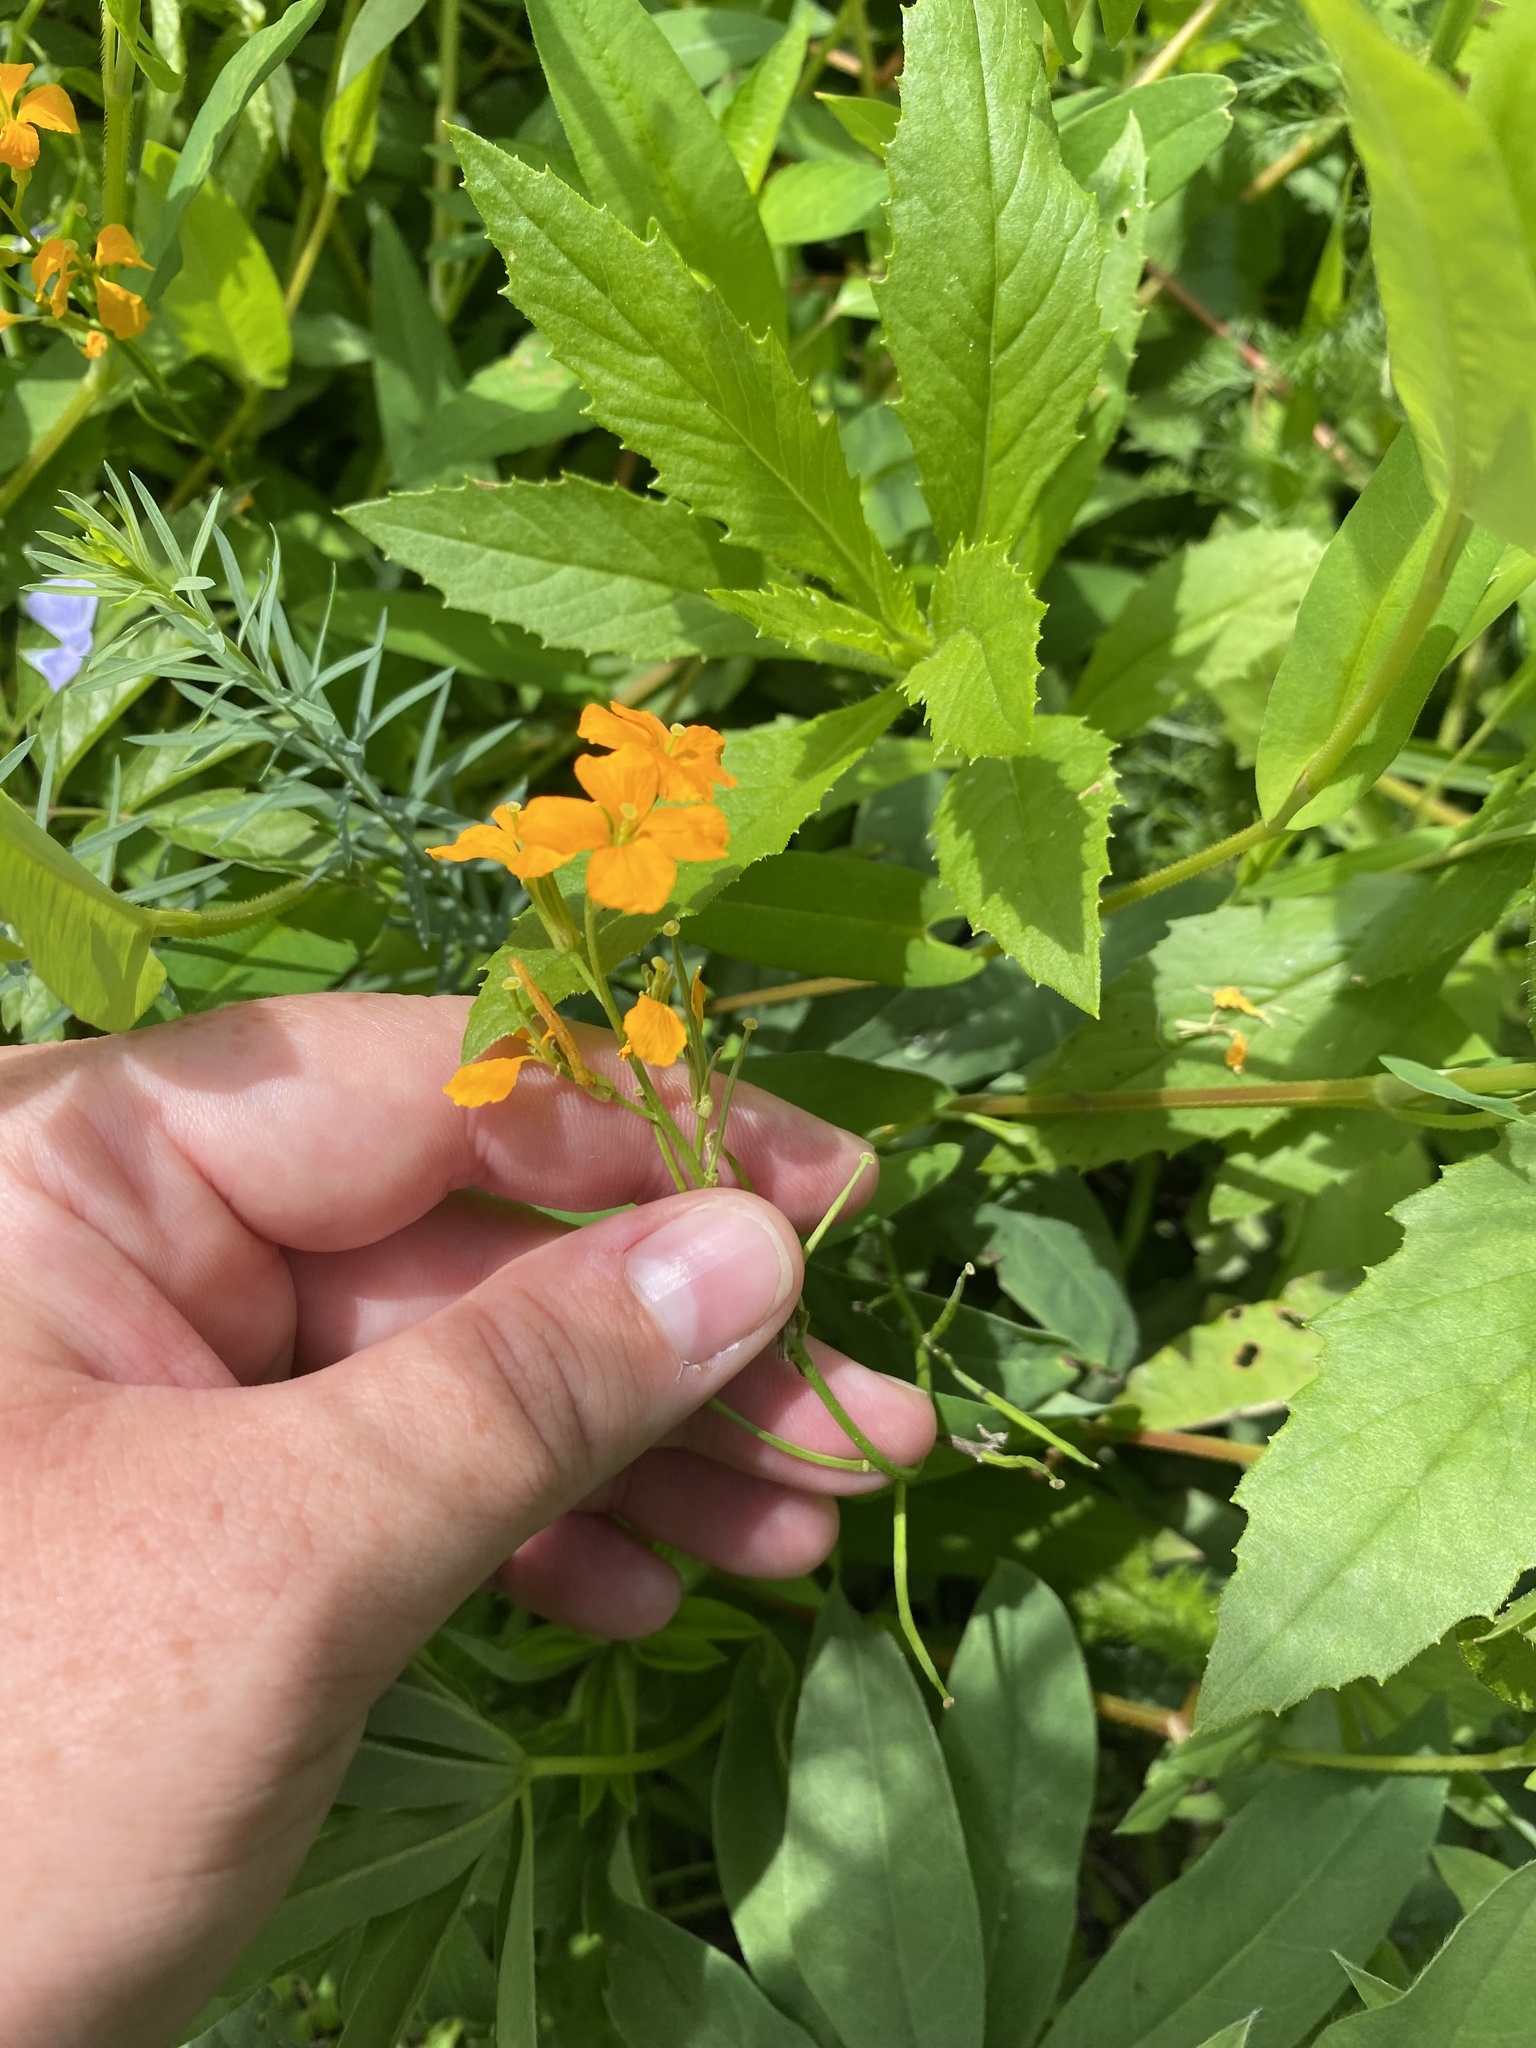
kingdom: Plantae
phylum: Tracheophyta
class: Magnoliopsida
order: Brassicales
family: Brassicaceae
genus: Erysimum
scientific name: Erysimum cheiri
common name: Wallflower
